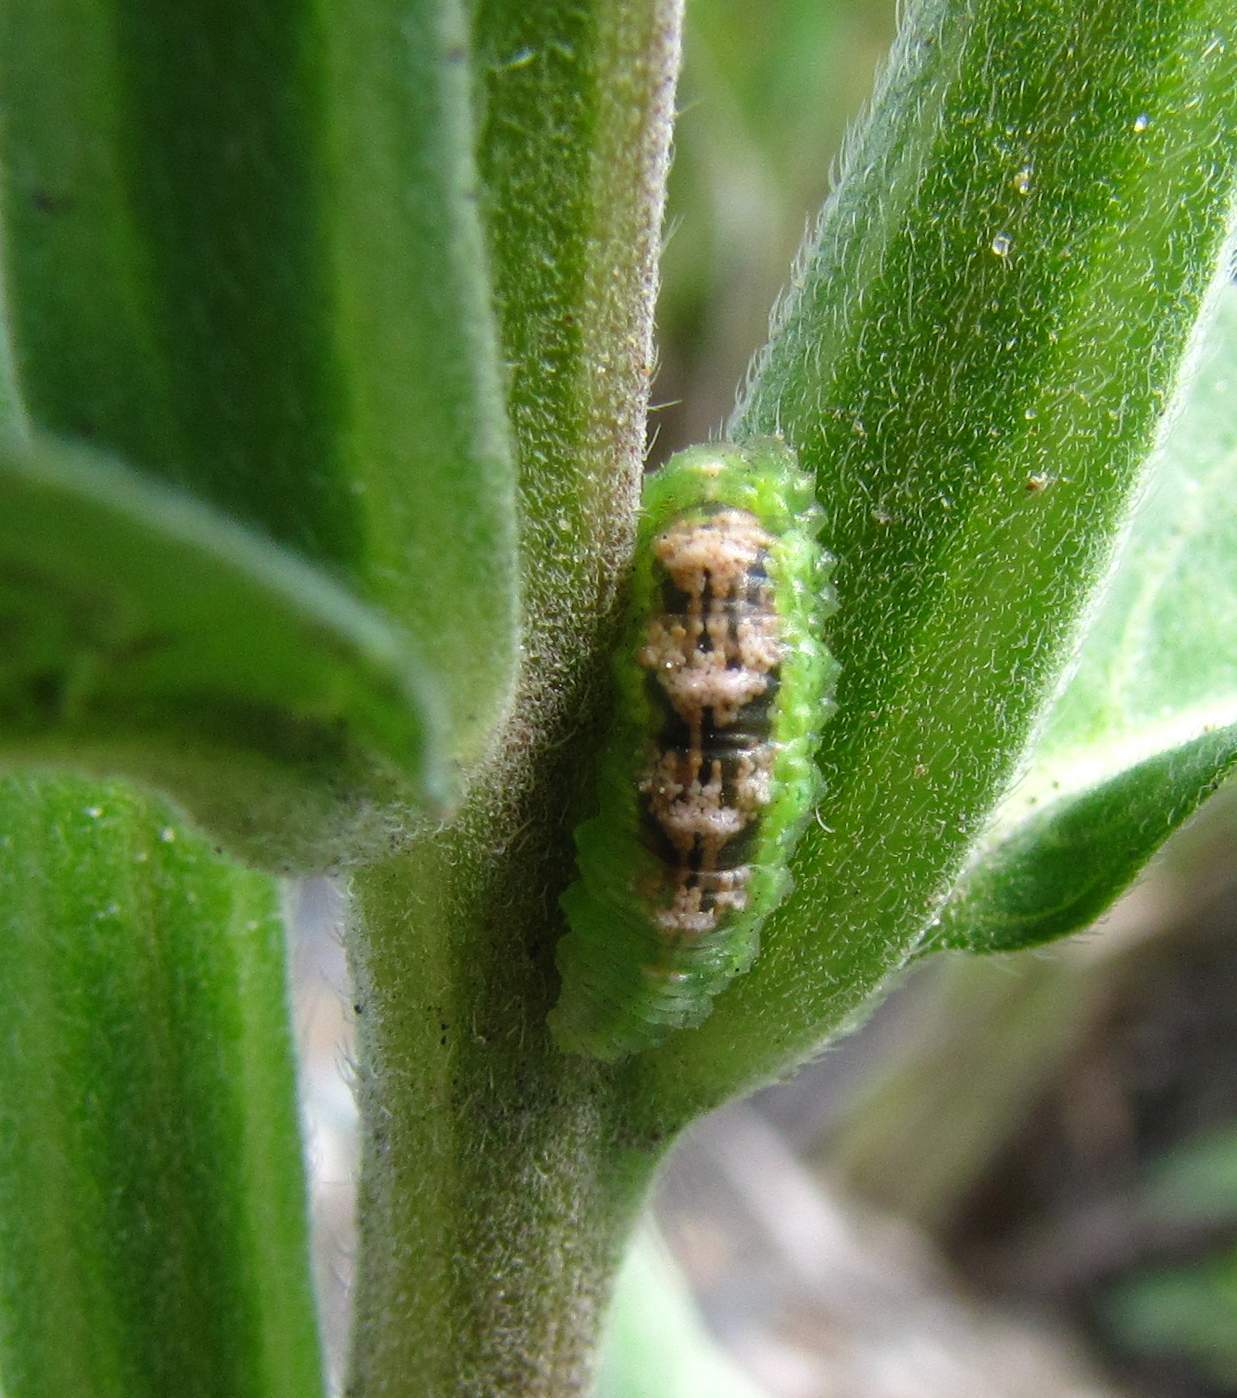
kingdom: Animalia
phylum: Arthropoda
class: Insecta
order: Diptera
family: Syrphidae
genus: Eupeodes
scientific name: Eupeodes pomus
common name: Short-tailed aphideater
